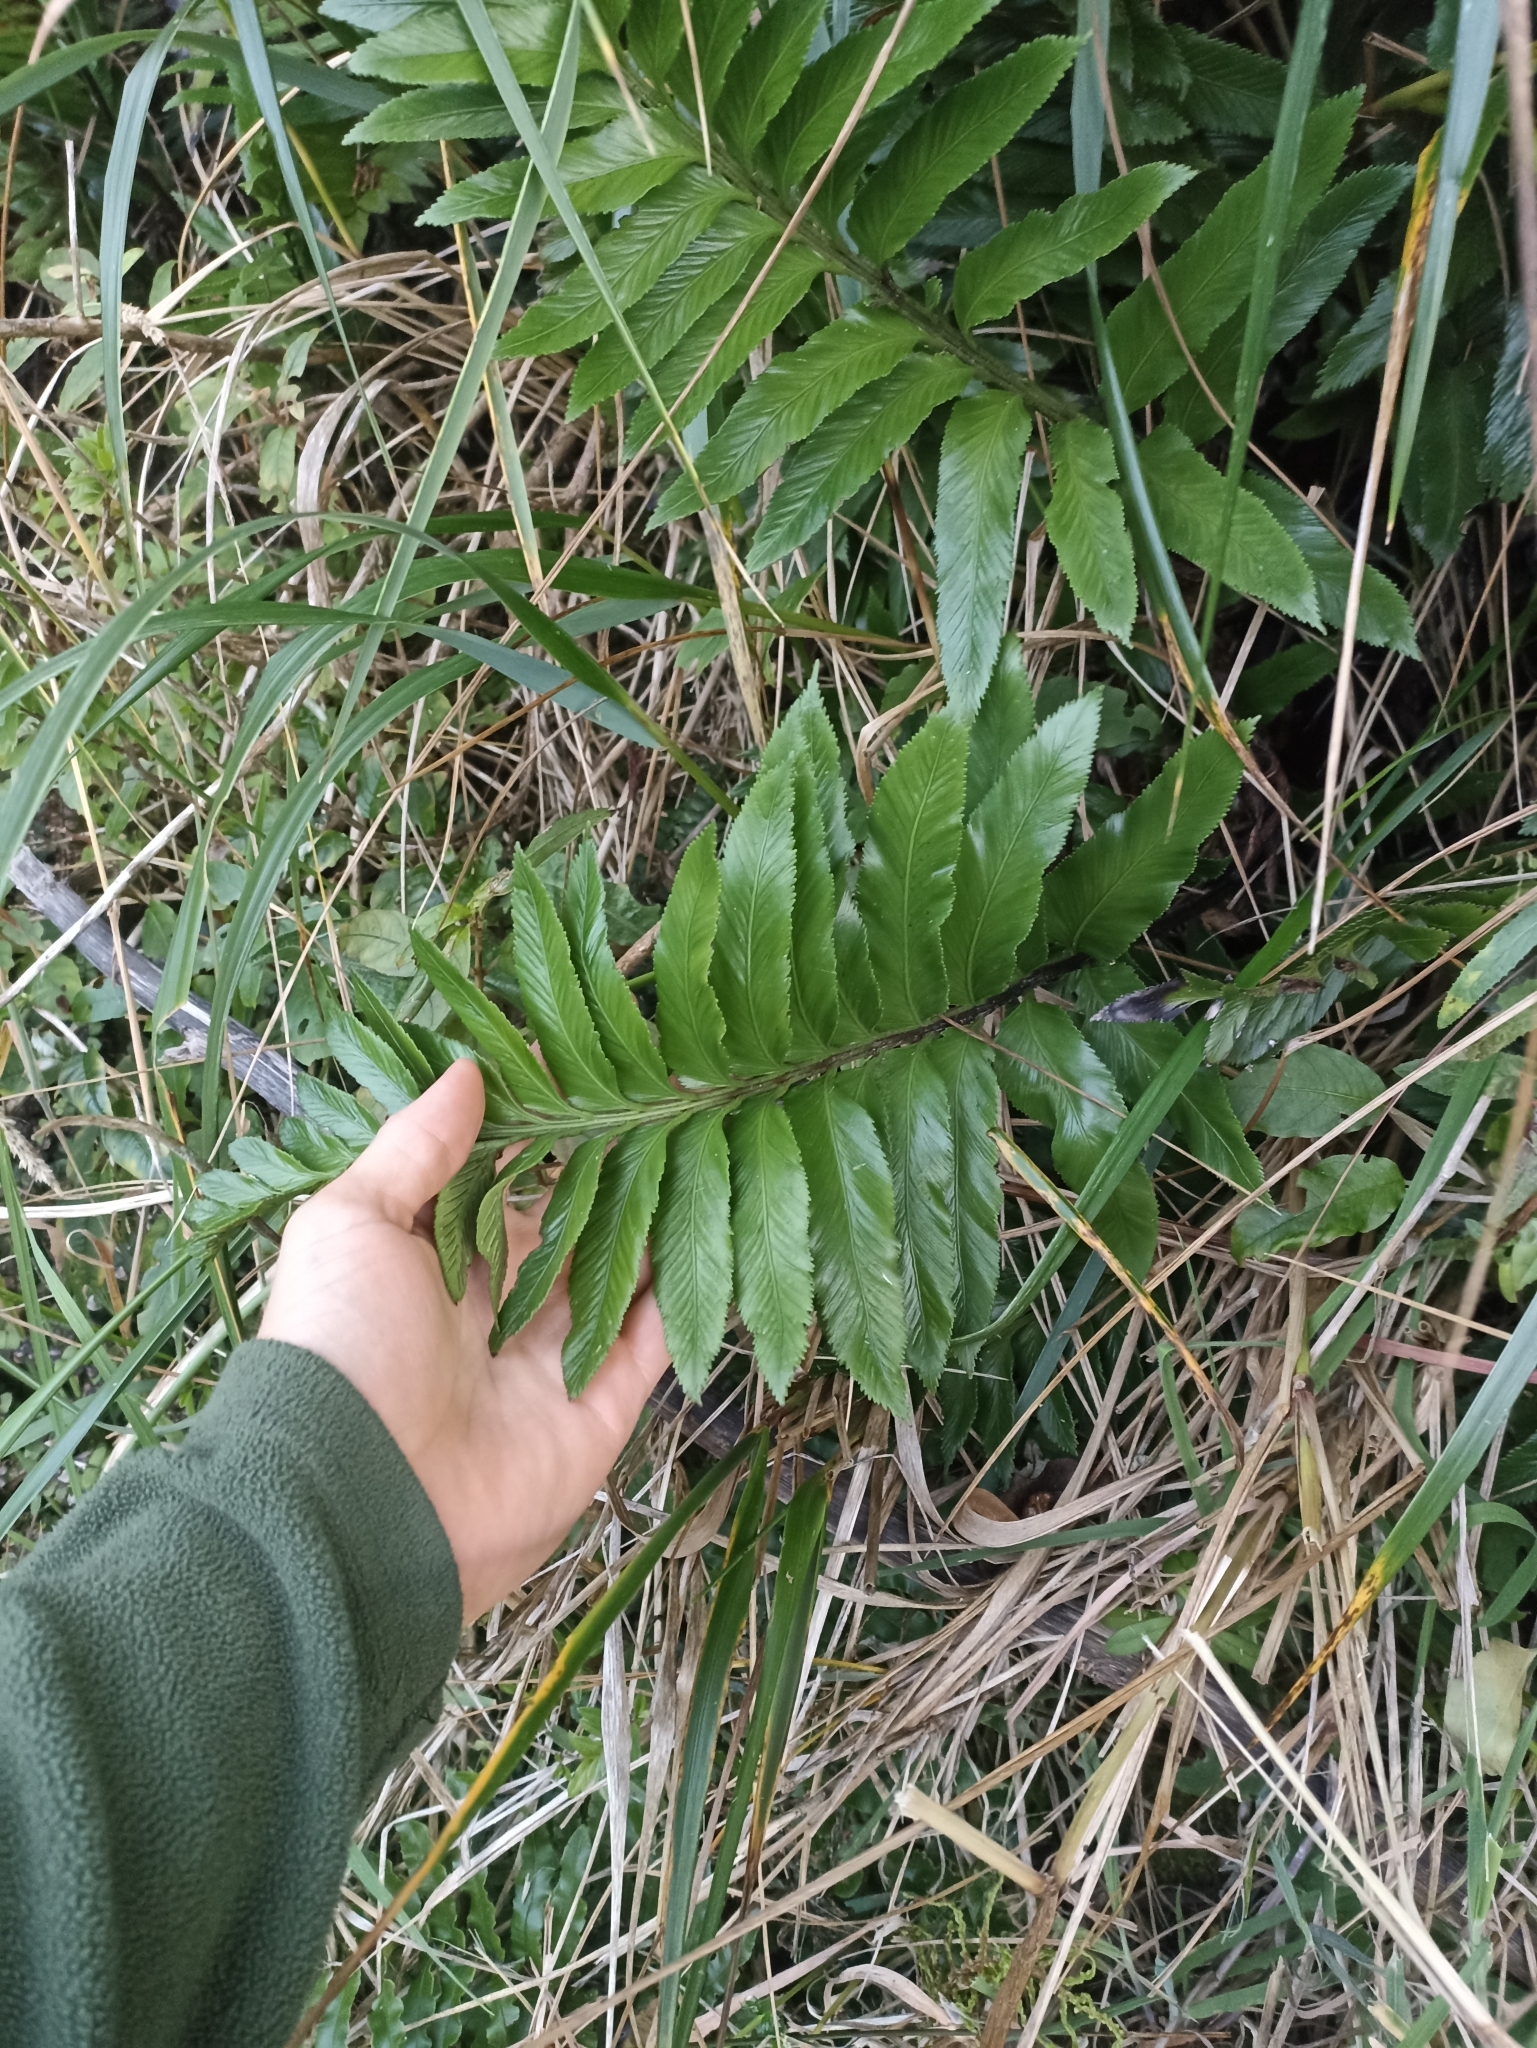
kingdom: Plantae
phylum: Tracheophyta
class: Polypodiopsida
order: Polypodiales
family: Aspleniaceae
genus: Asplenium
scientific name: Asplenium obtusatum
